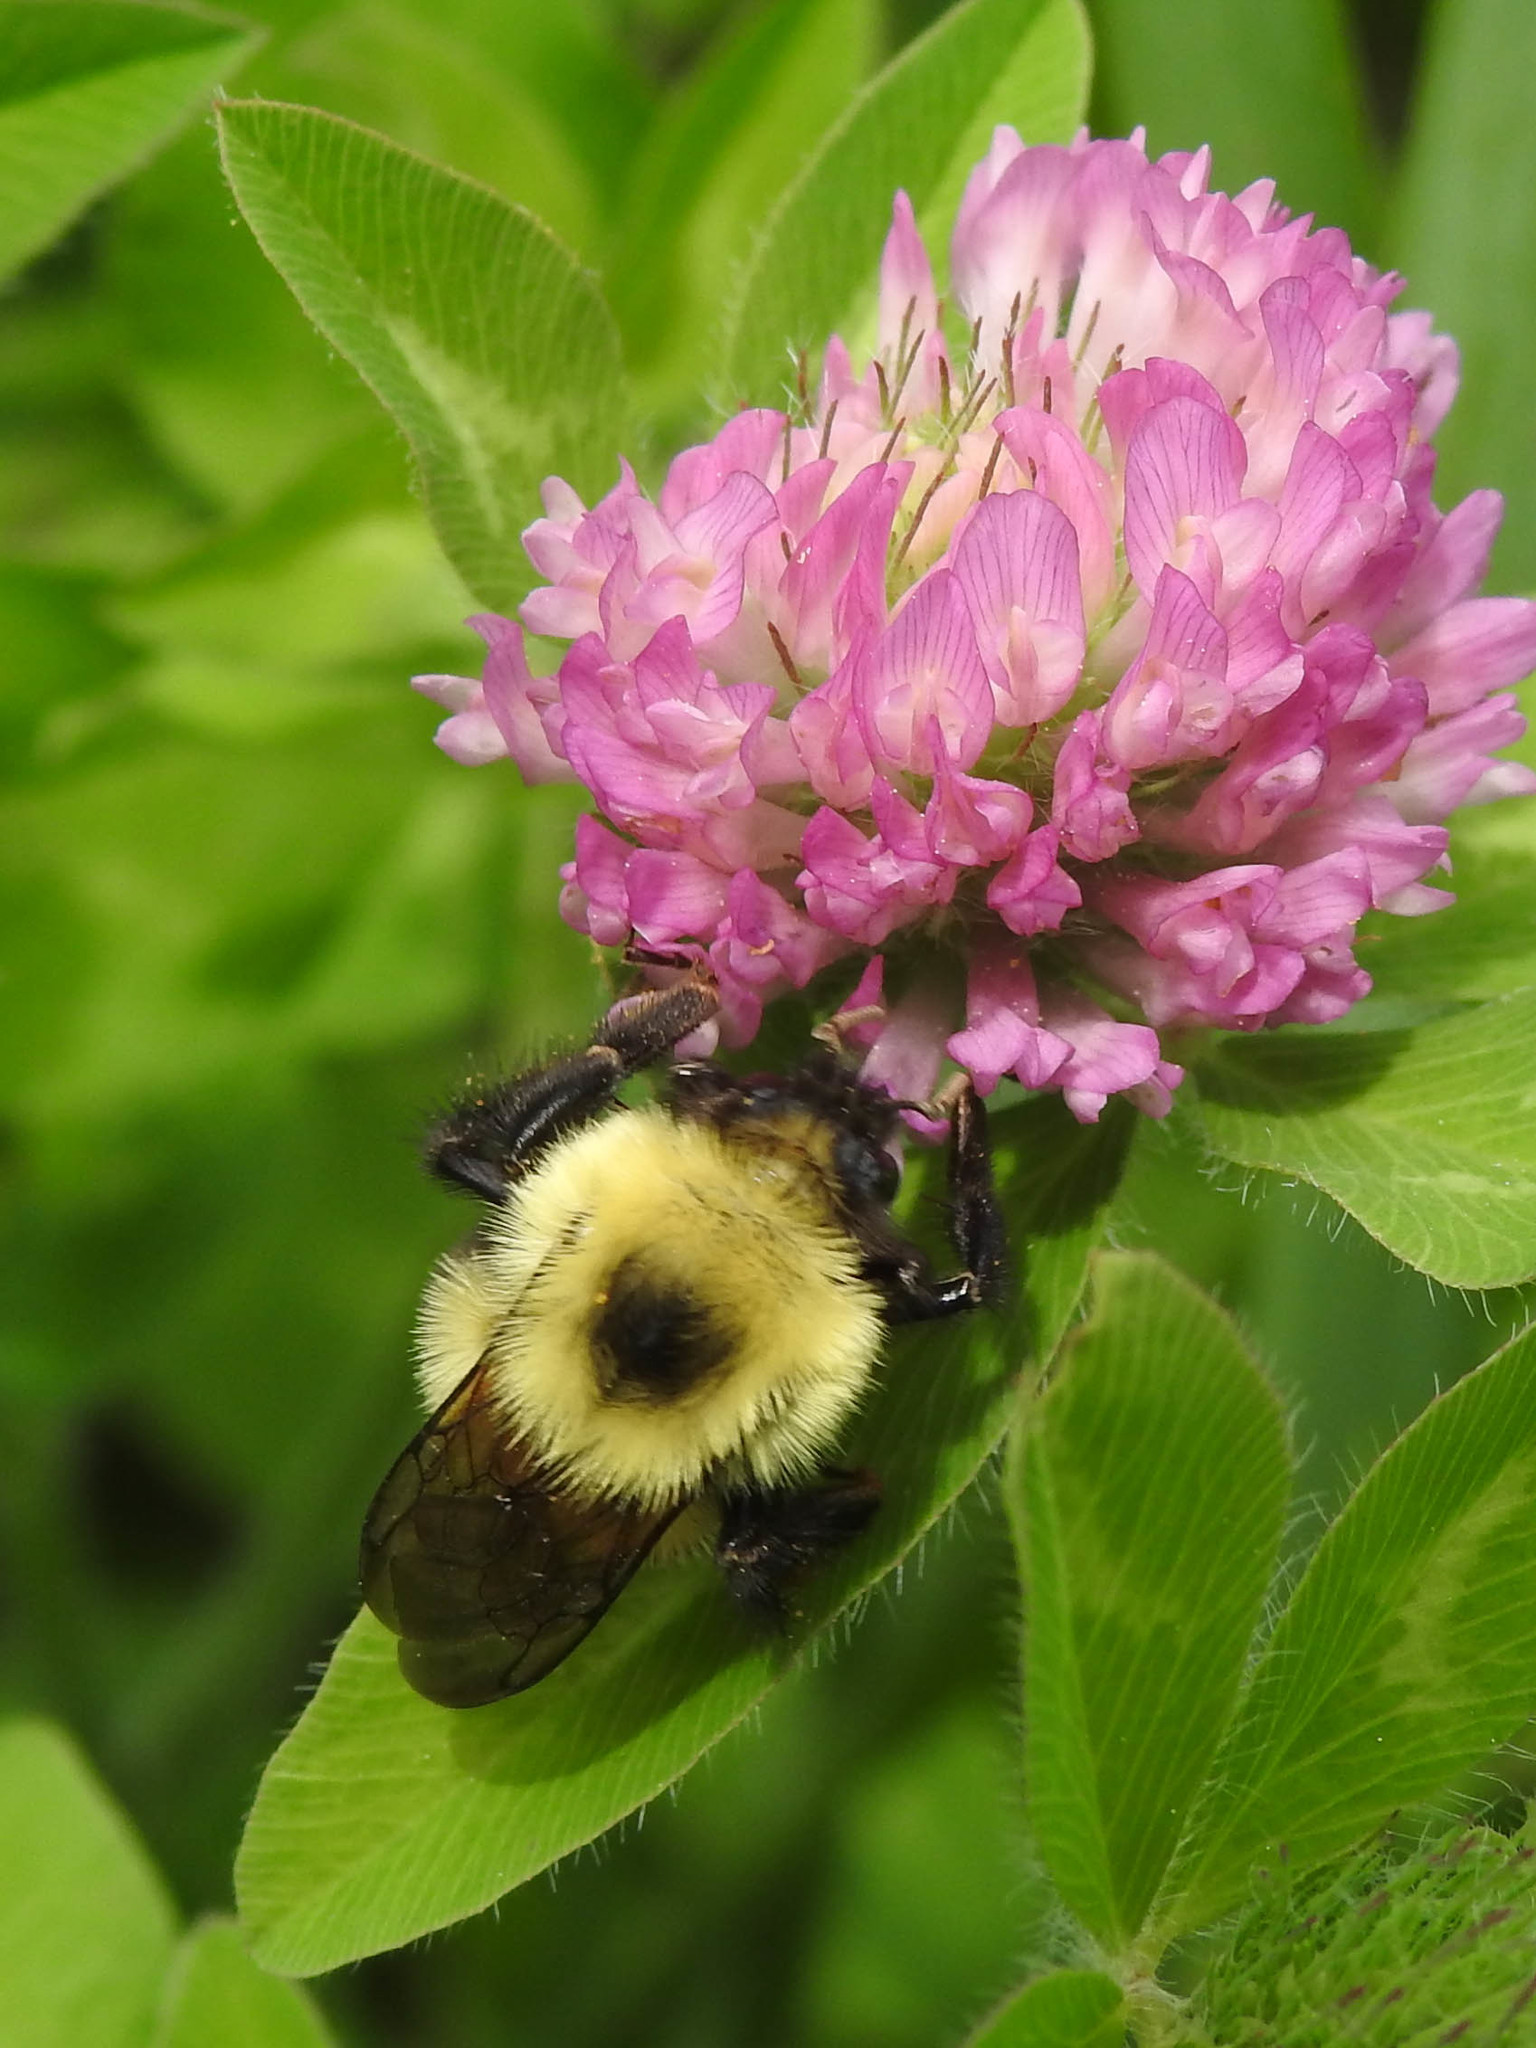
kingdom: Animalia
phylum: Arthropoda
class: Insecta
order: Hymenoptera
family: Apidae
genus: Bombus
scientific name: Bombus bimaculatus
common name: Two-spotted bumble bee
